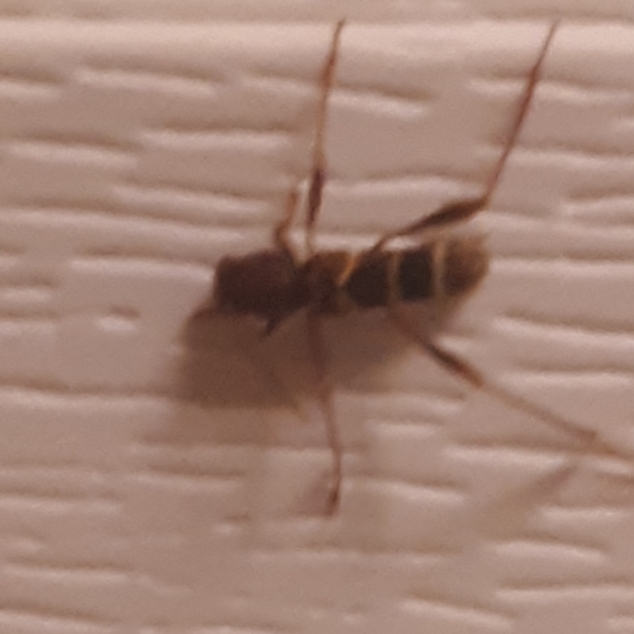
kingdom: Animalia
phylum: Arthropoda
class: Insecta
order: Coleoptera
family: Cerambycidae
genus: Neoclytus
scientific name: Neoclytus acuminatus
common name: Read-headed ash borer
